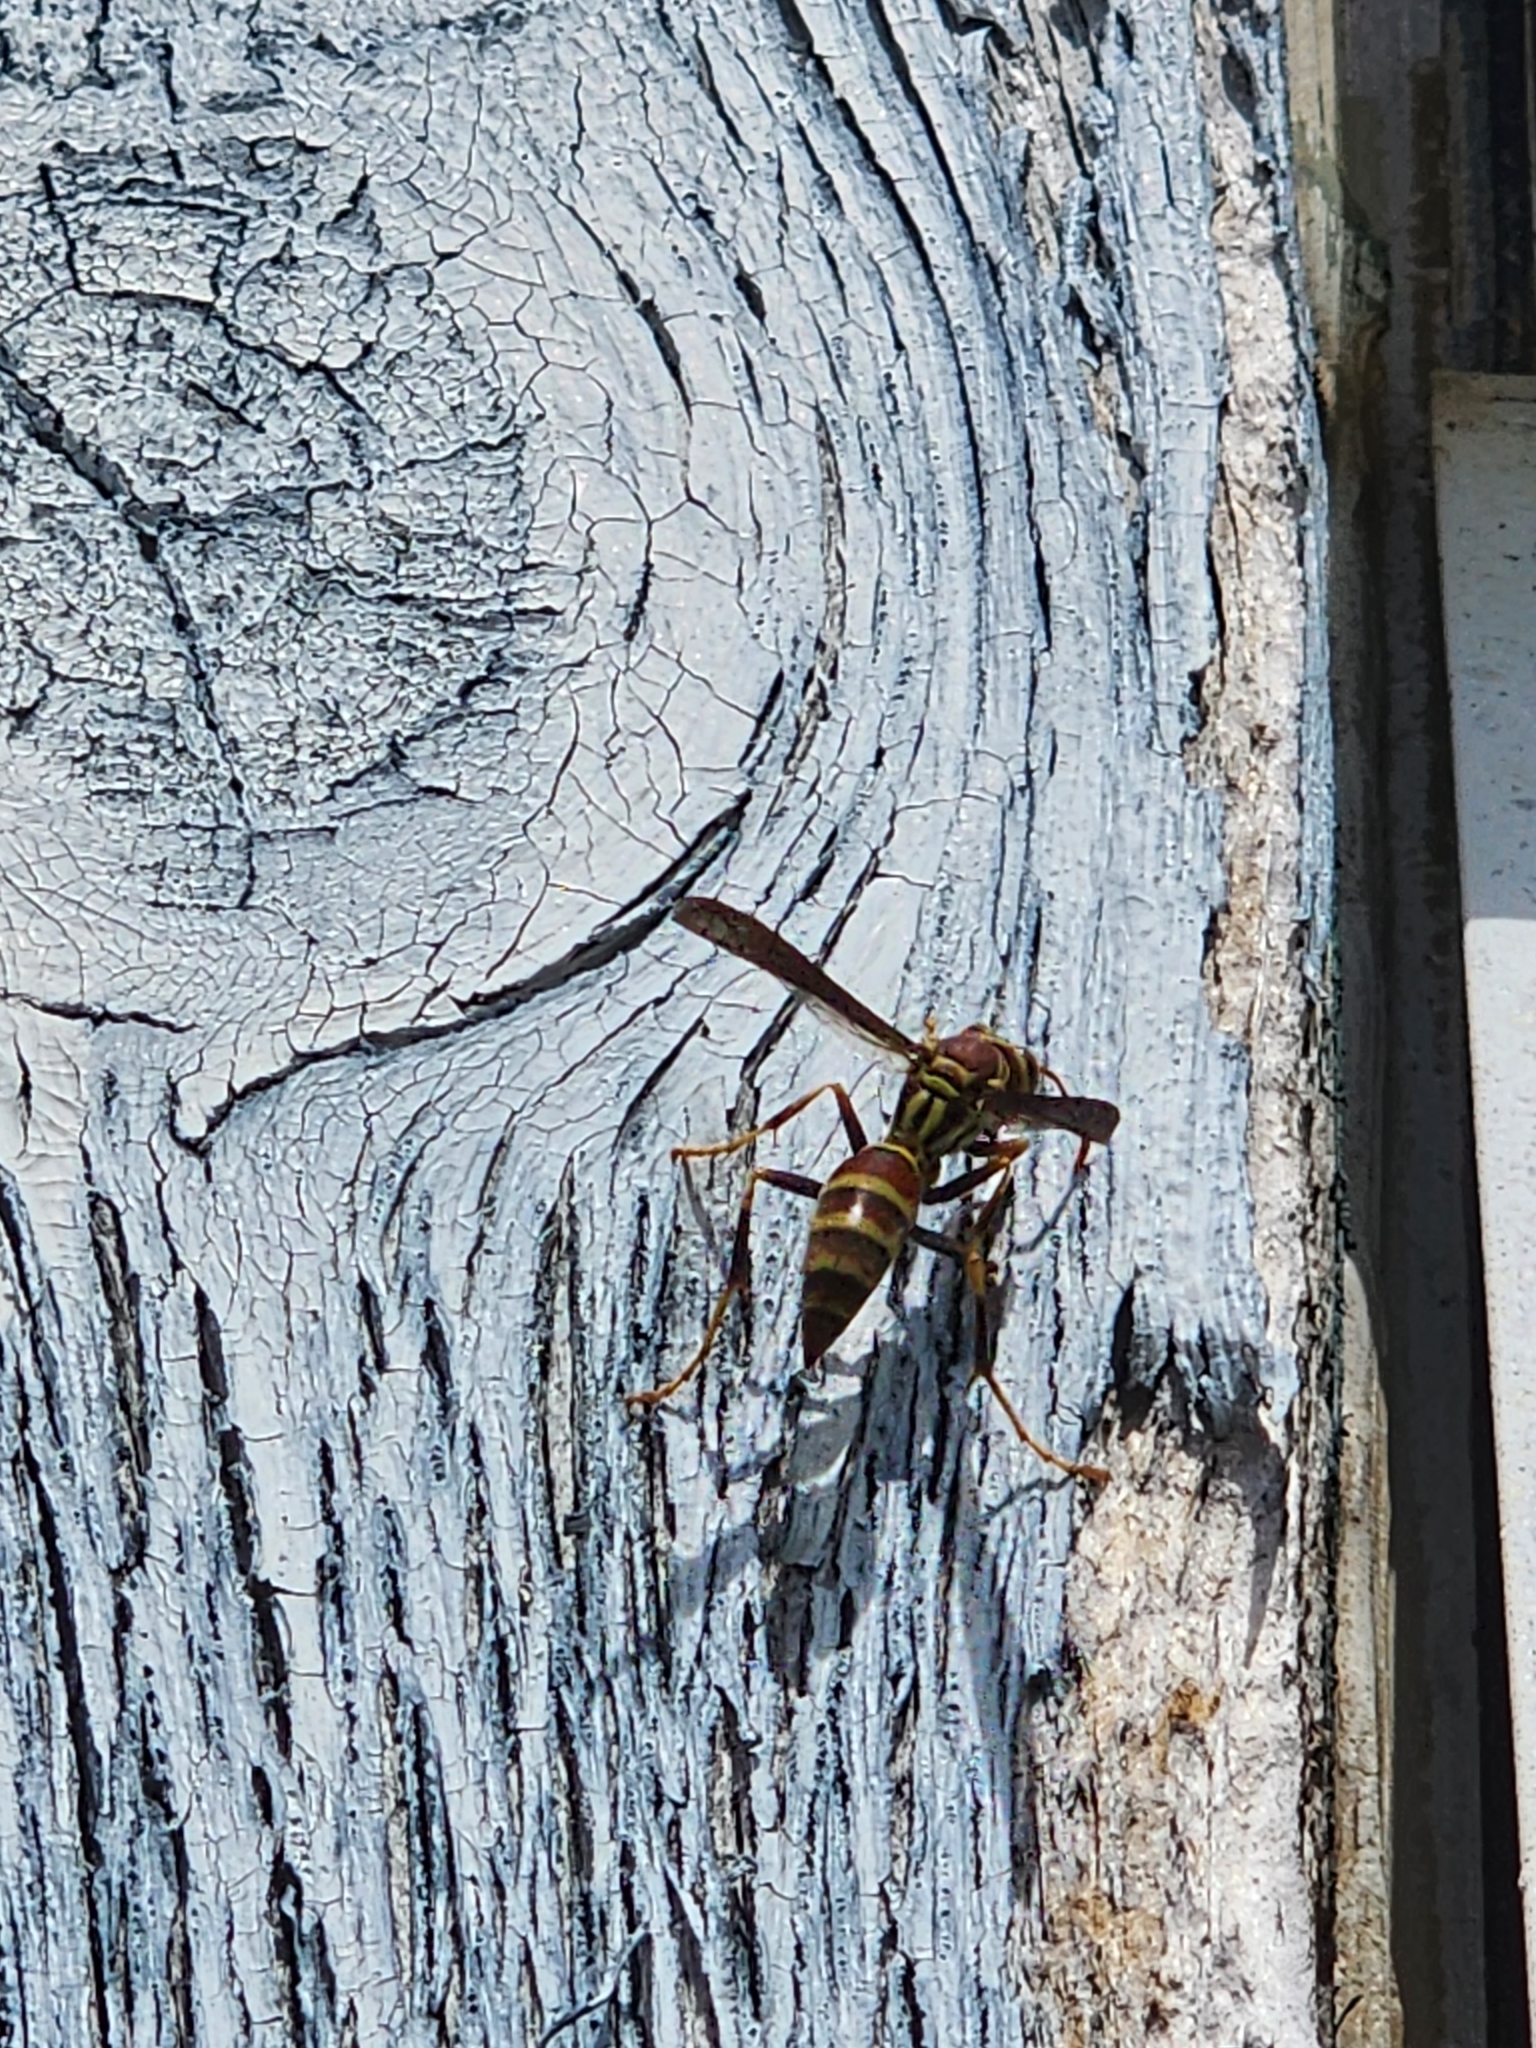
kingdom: Animalia
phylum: Arthropoda
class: Insecta
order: Hymenoptera
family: Eumenidae
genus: Polistes
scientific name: Polistes exclamans
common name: Paper wasp
